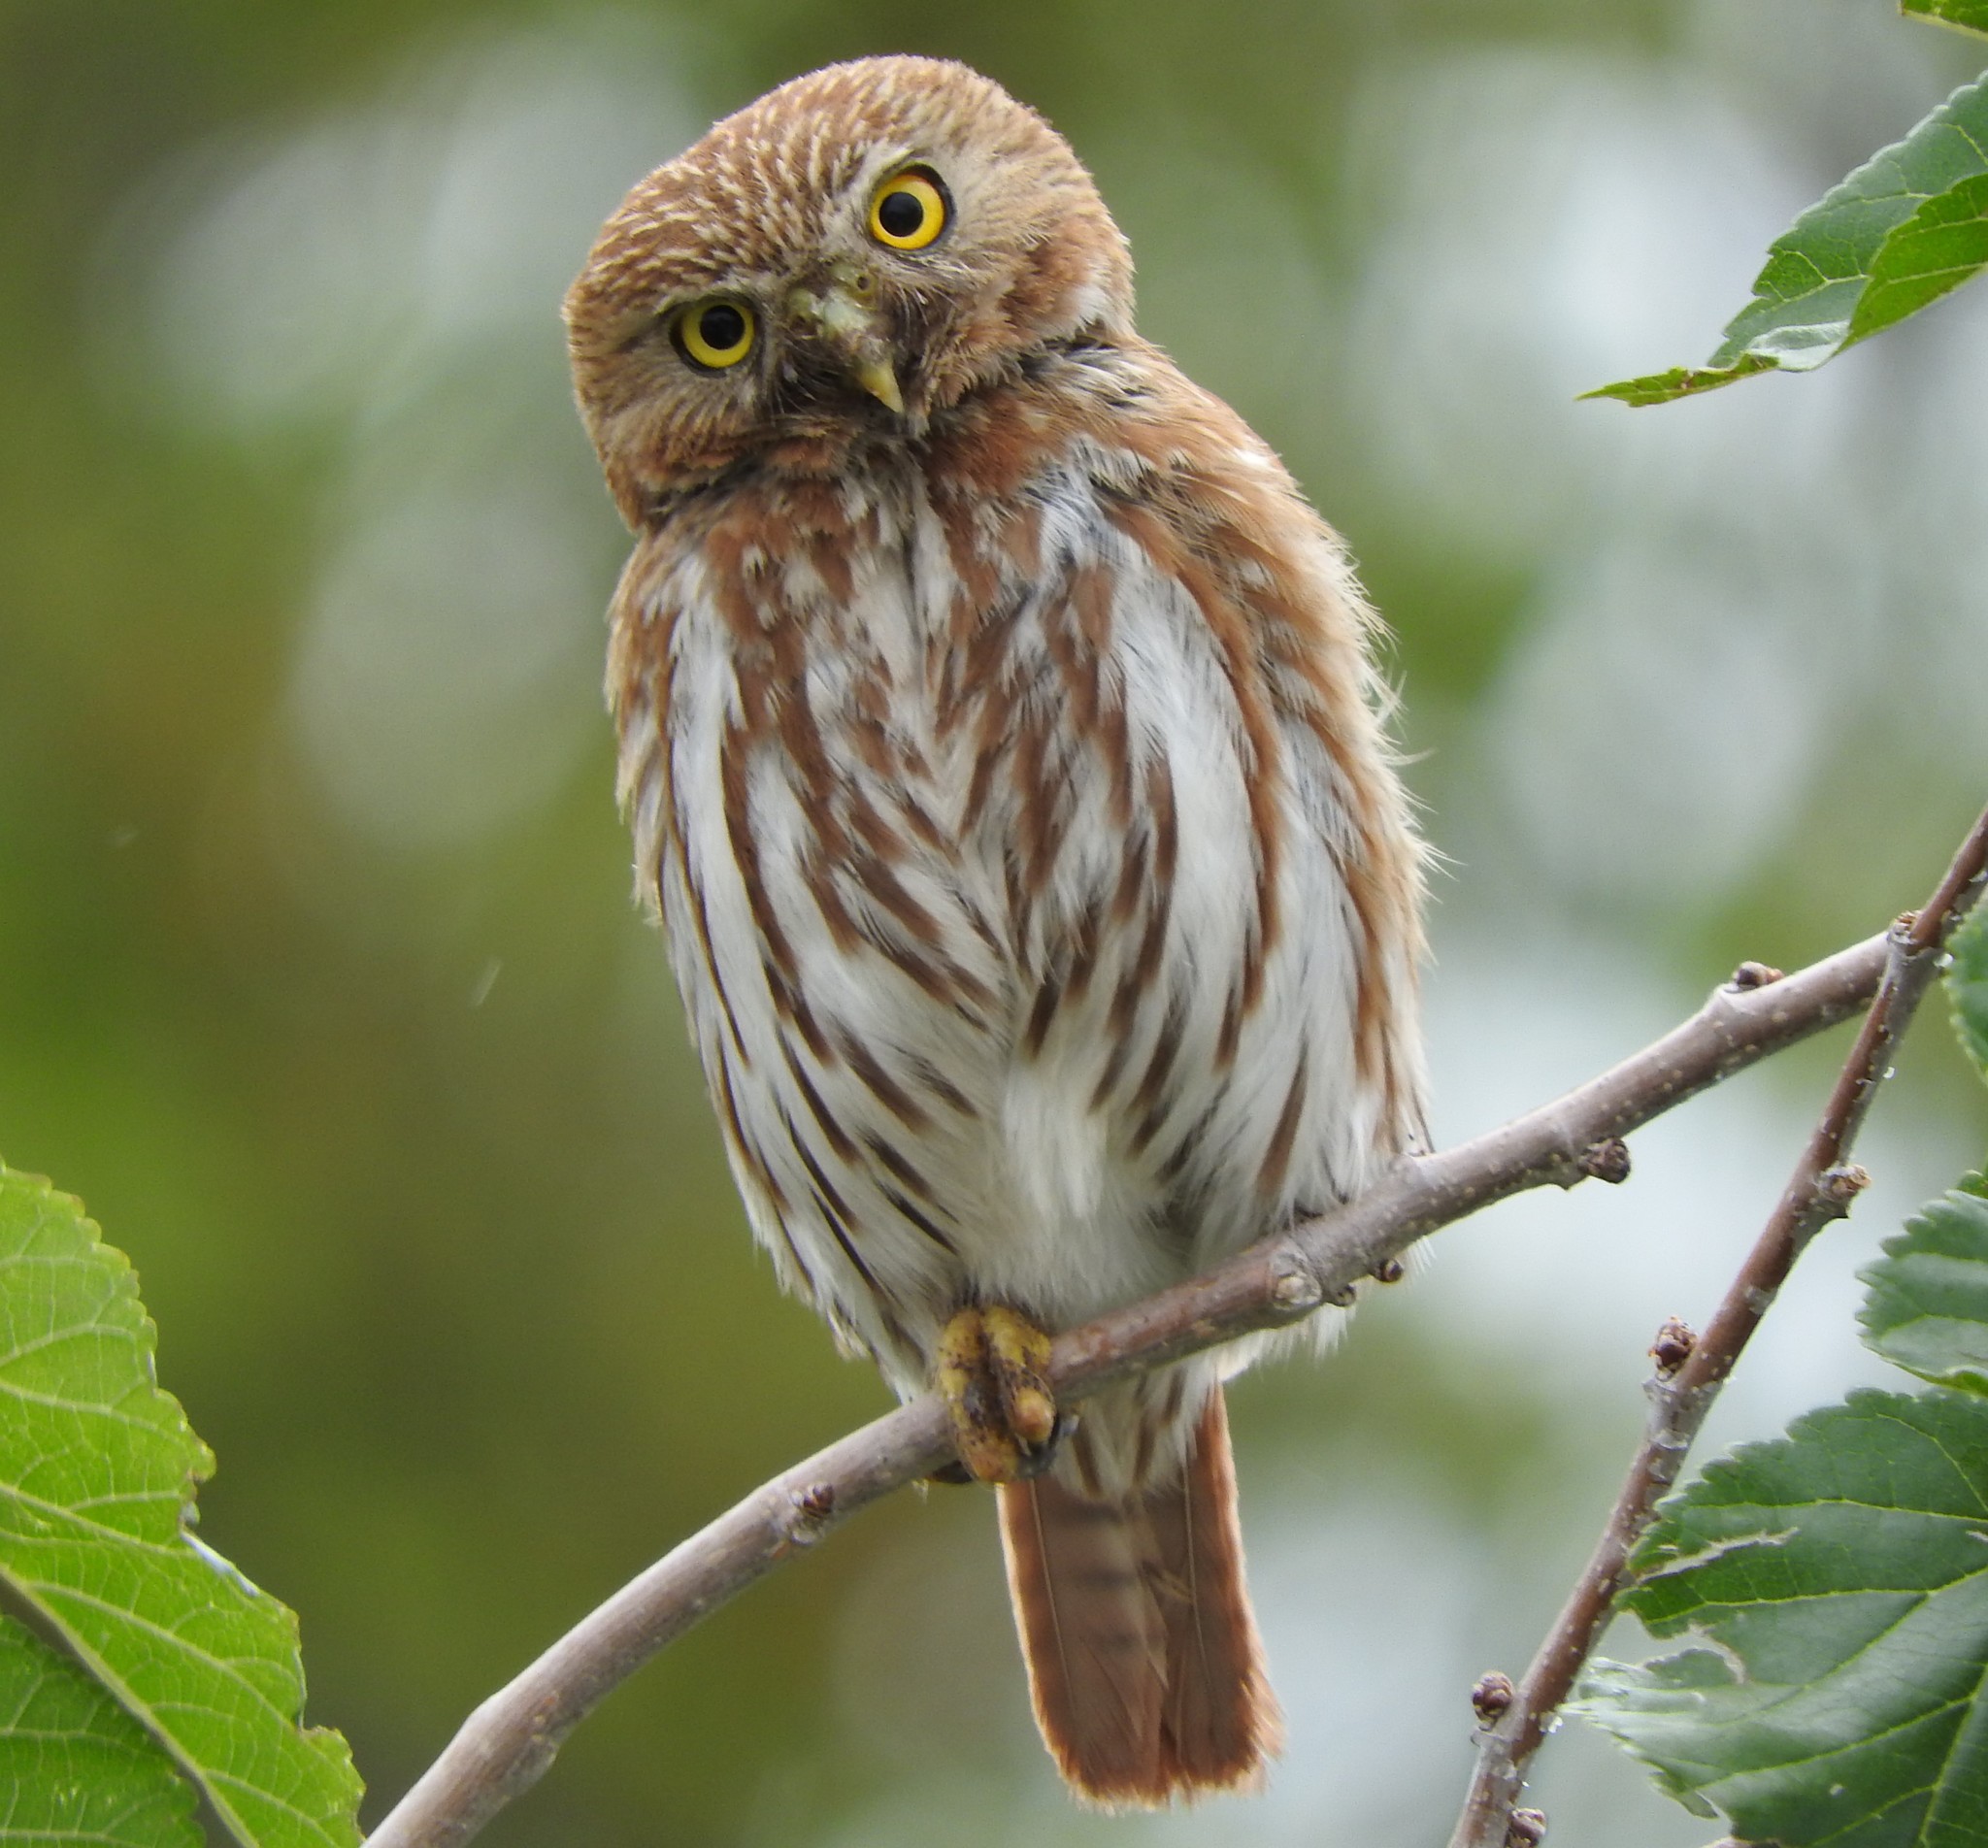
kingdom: Animalia
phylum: Chordata
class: Aves
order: Strigiformes
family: Strigidae
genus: Glaucidium
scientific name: Glaucidium brasilianum
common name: Ferruginous pygmy-owl
